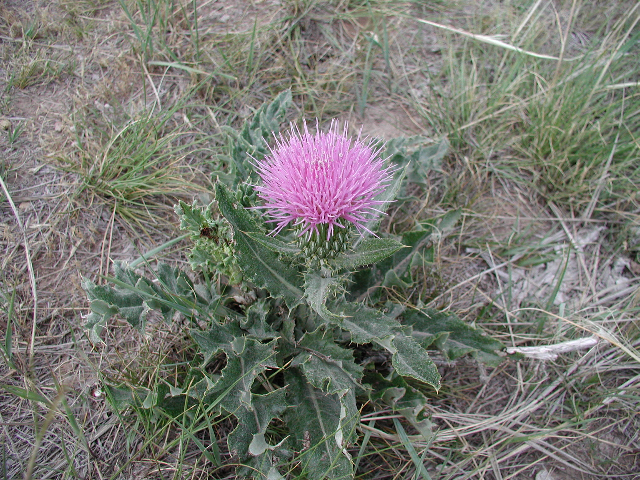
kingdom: Plantae
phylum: Tracheophyta
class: Magnoliopsida
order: Asterales
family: Asteraceae
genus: Cirsium
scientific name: Cirsium undulatum
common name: Pasture thistle
